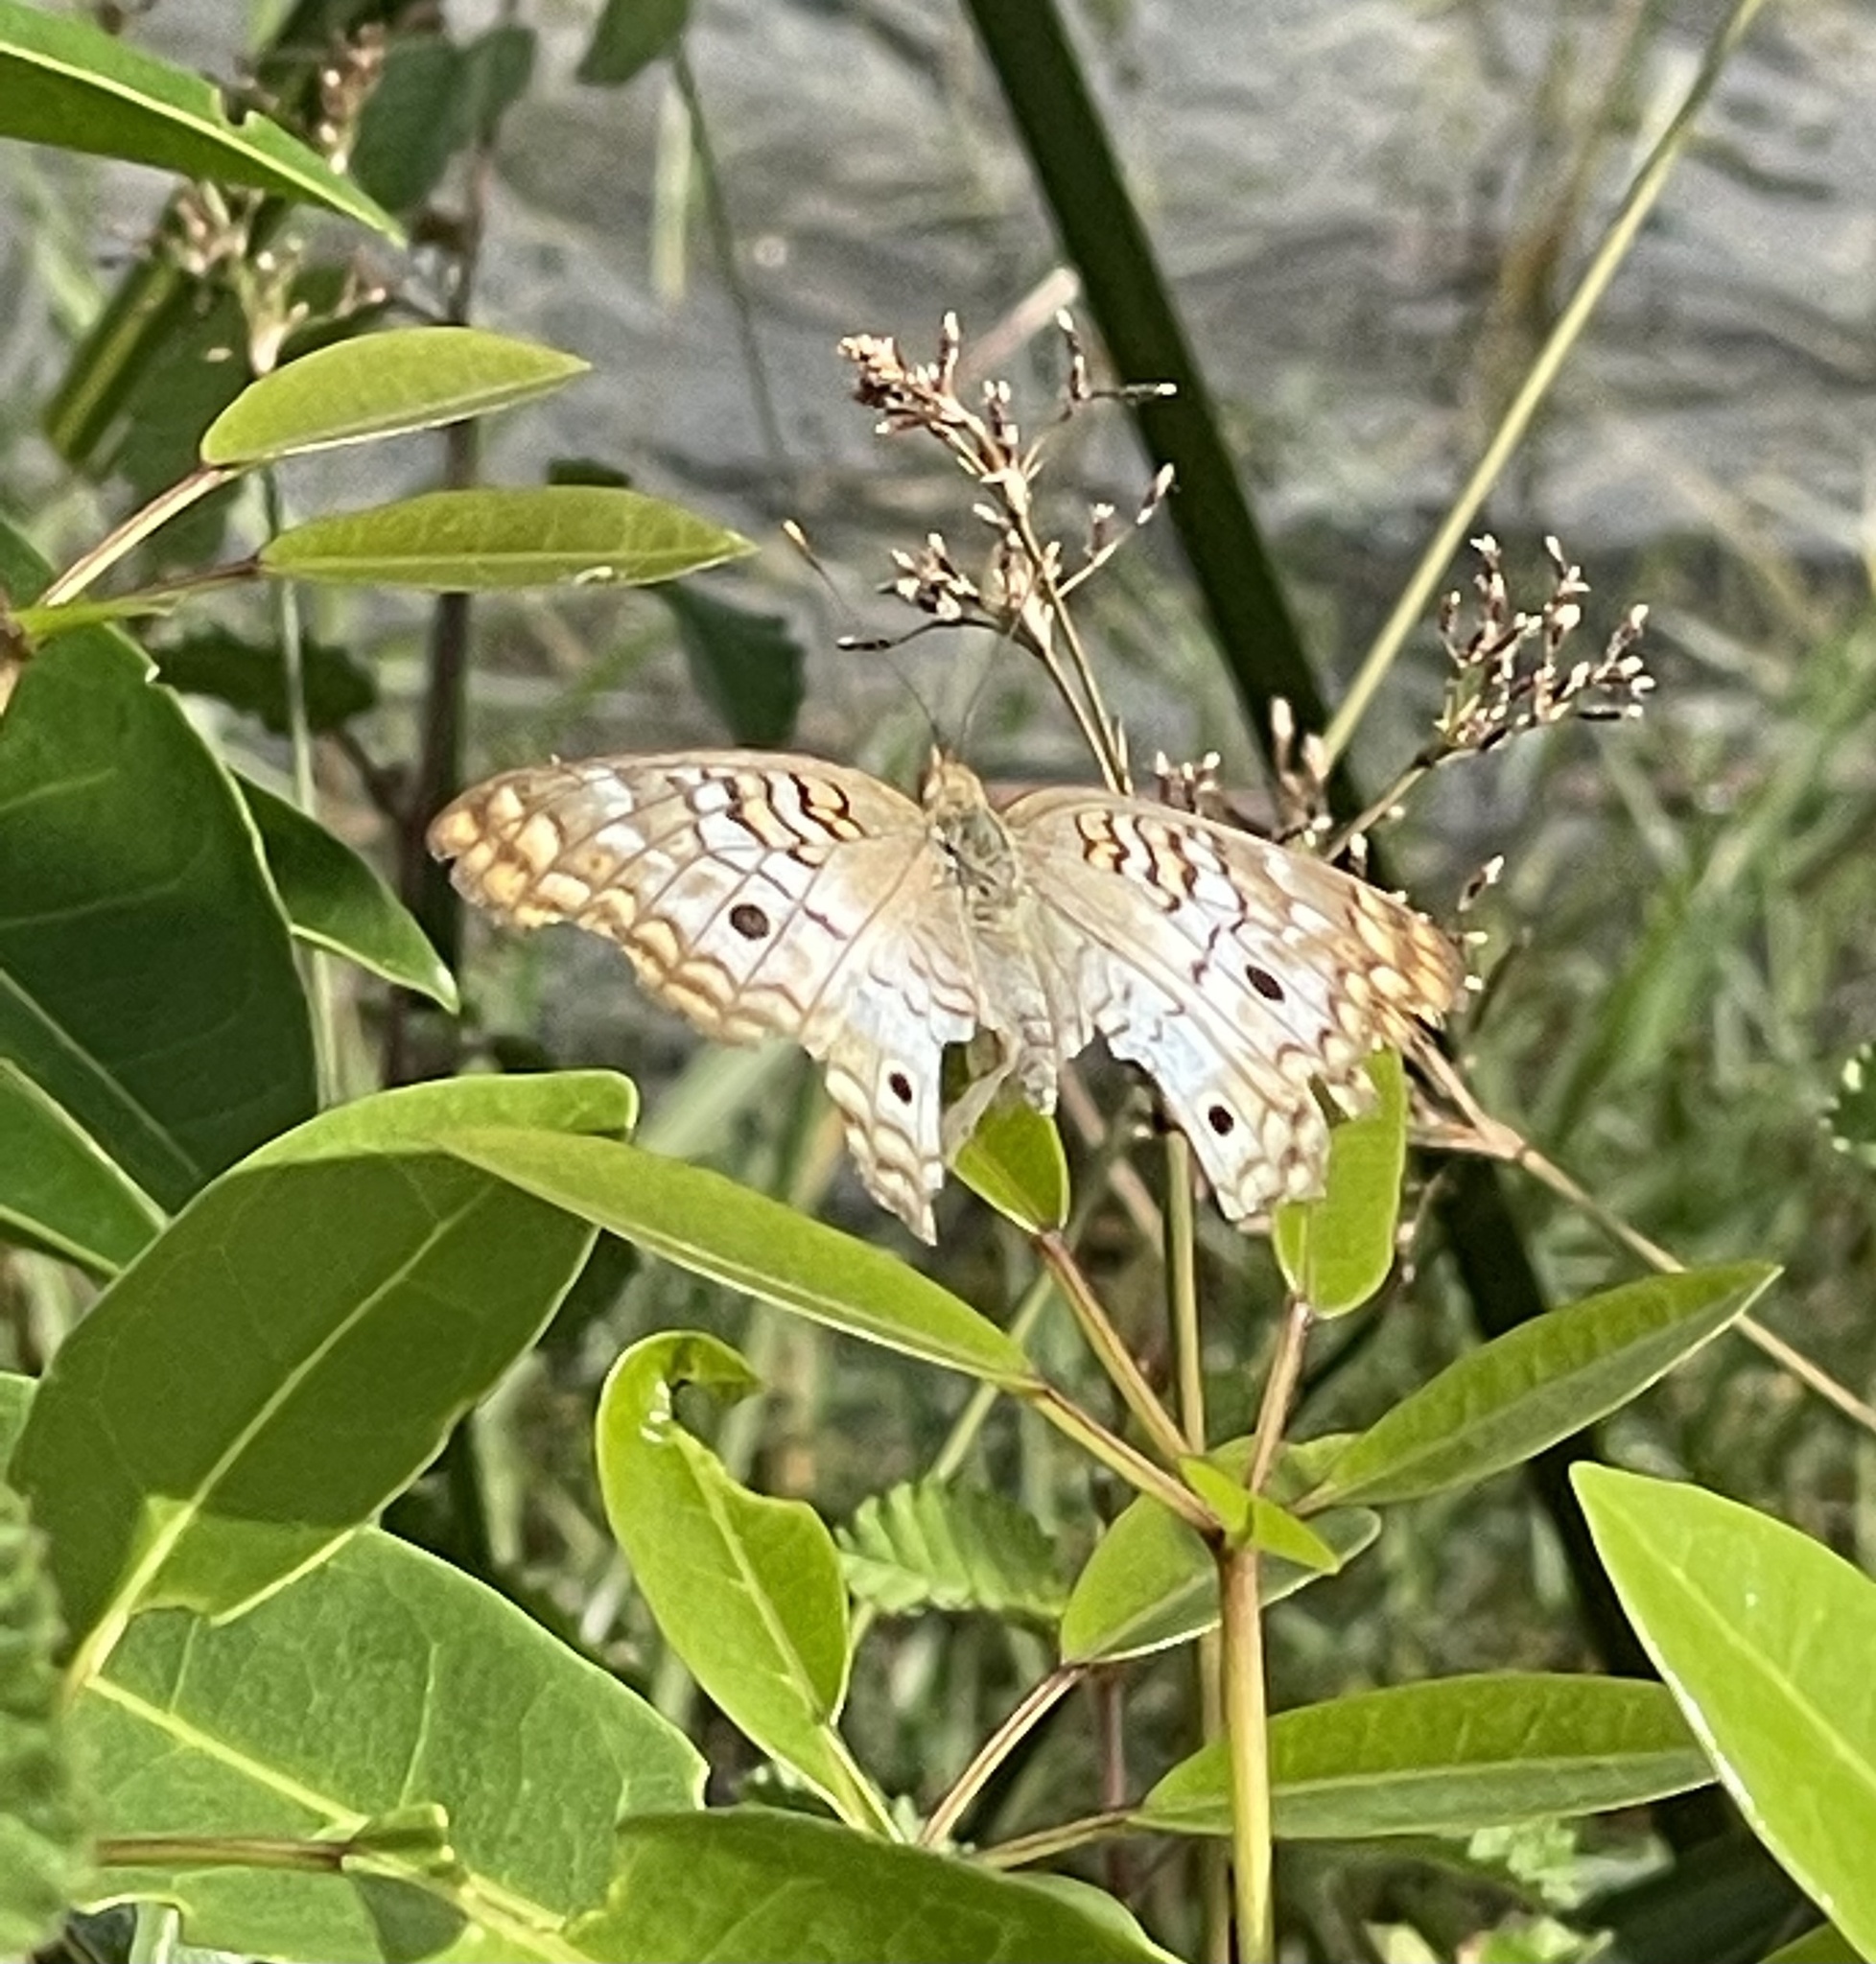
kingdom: Animalia
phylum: Arthropoda
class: Insecta
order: Lepidoptera
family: Nymphalidae
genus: Anartia
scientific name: Anartia jatrophae
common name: White peacock
